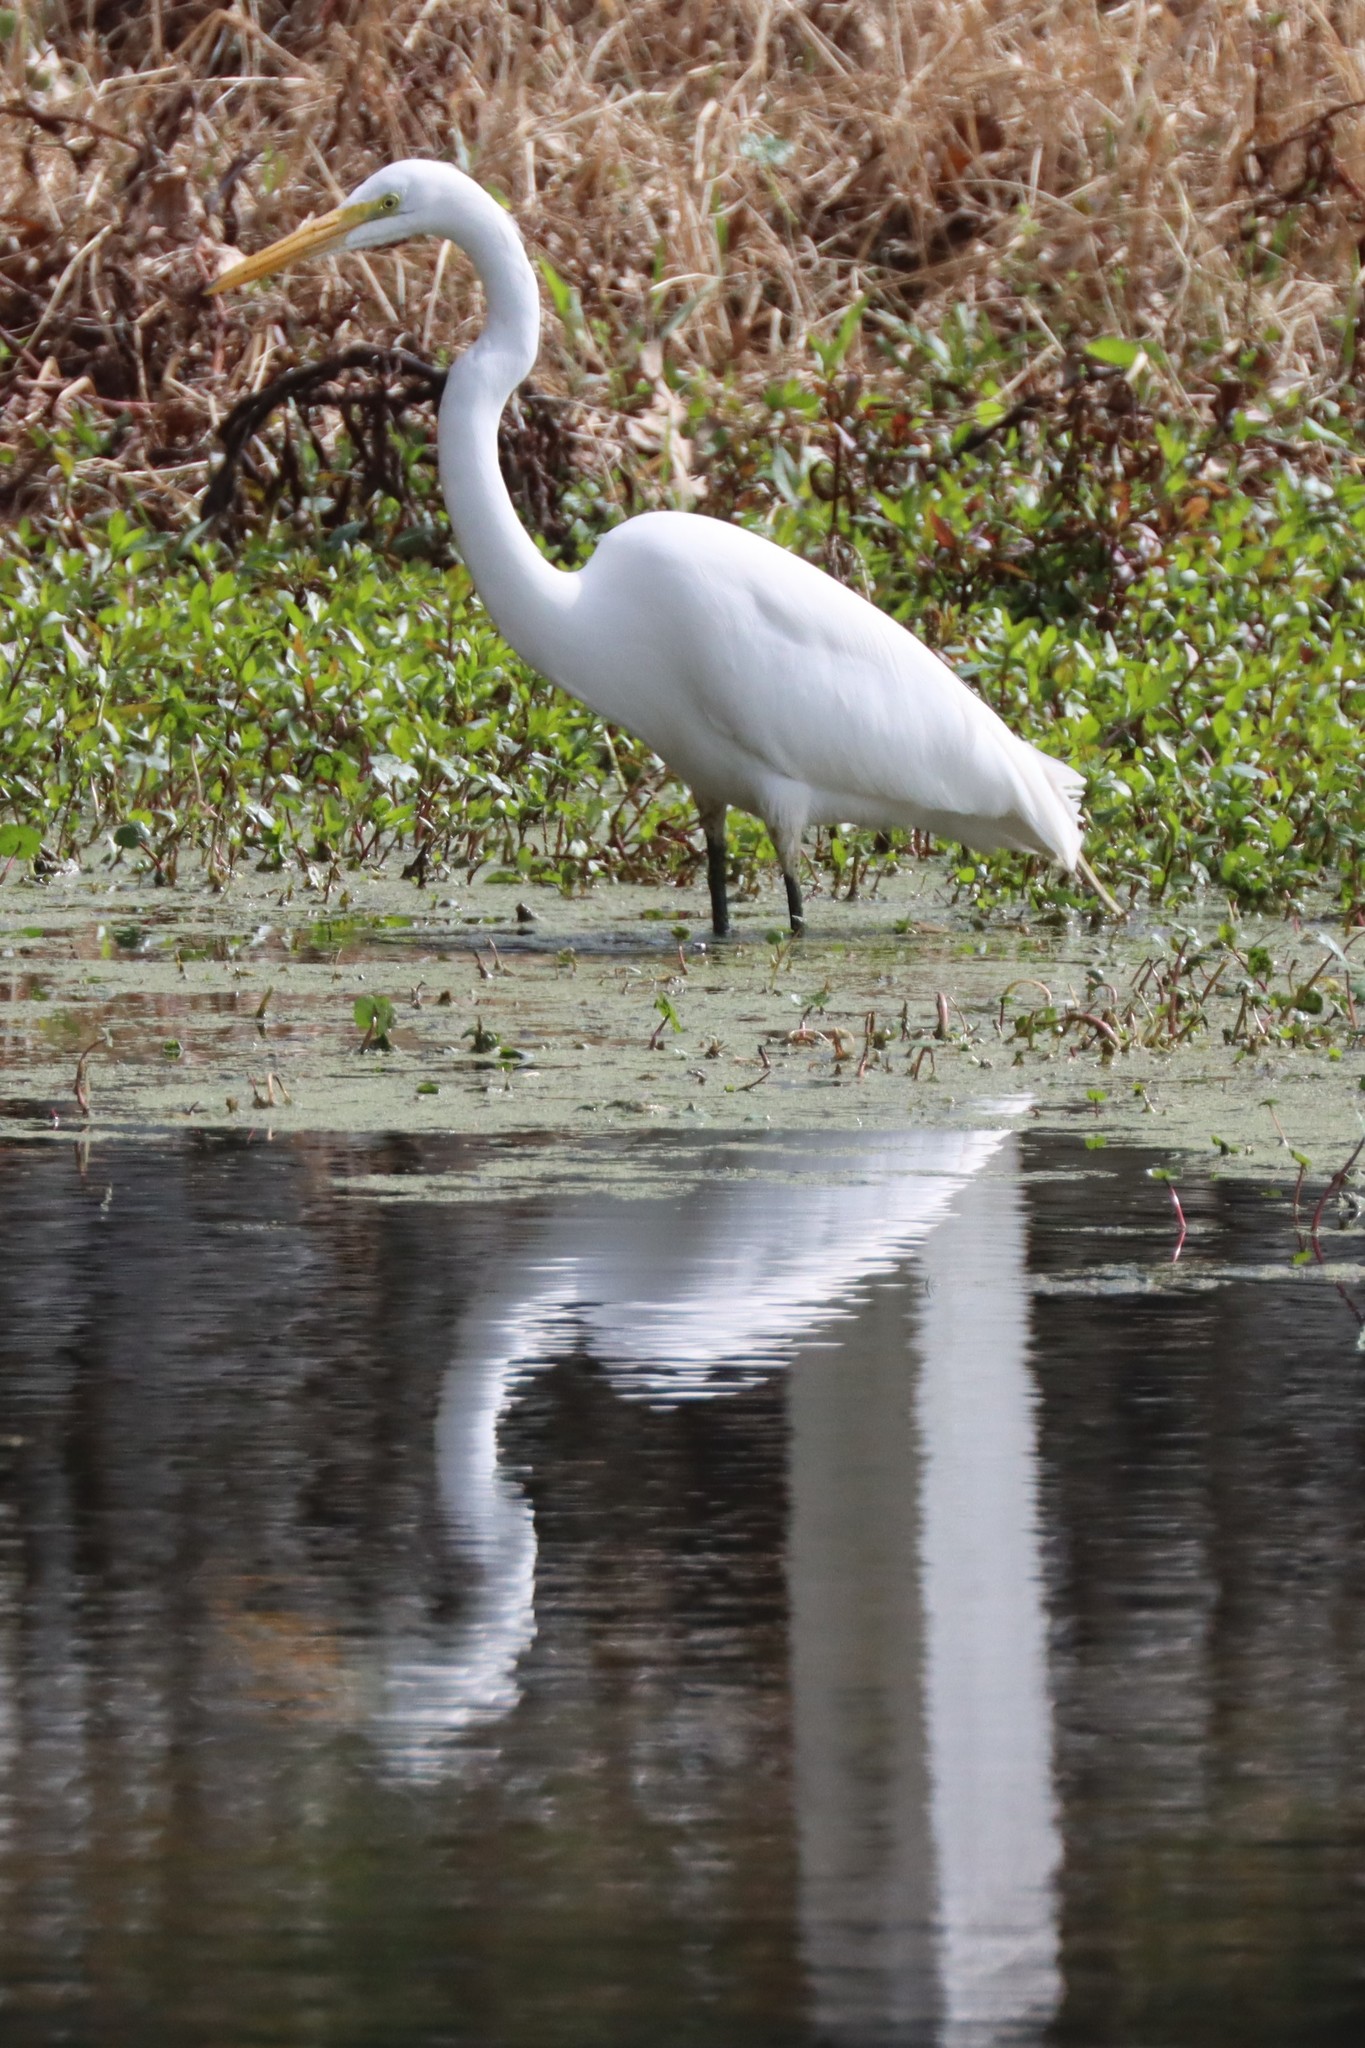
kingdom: Animalia
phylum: Chordata
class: Aves
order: Pelecaniformes
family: Ardeidae
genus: Ardea
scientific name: Ardea alba
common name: Great egret
